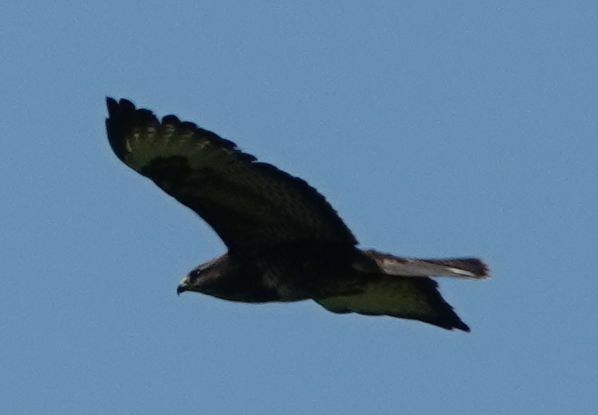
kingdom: Animalia
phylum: Chordata
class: Aves
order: Accipitriformes
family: Accipitridae
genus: Buteo
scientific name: Buteo buteo
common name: Common buzzard
